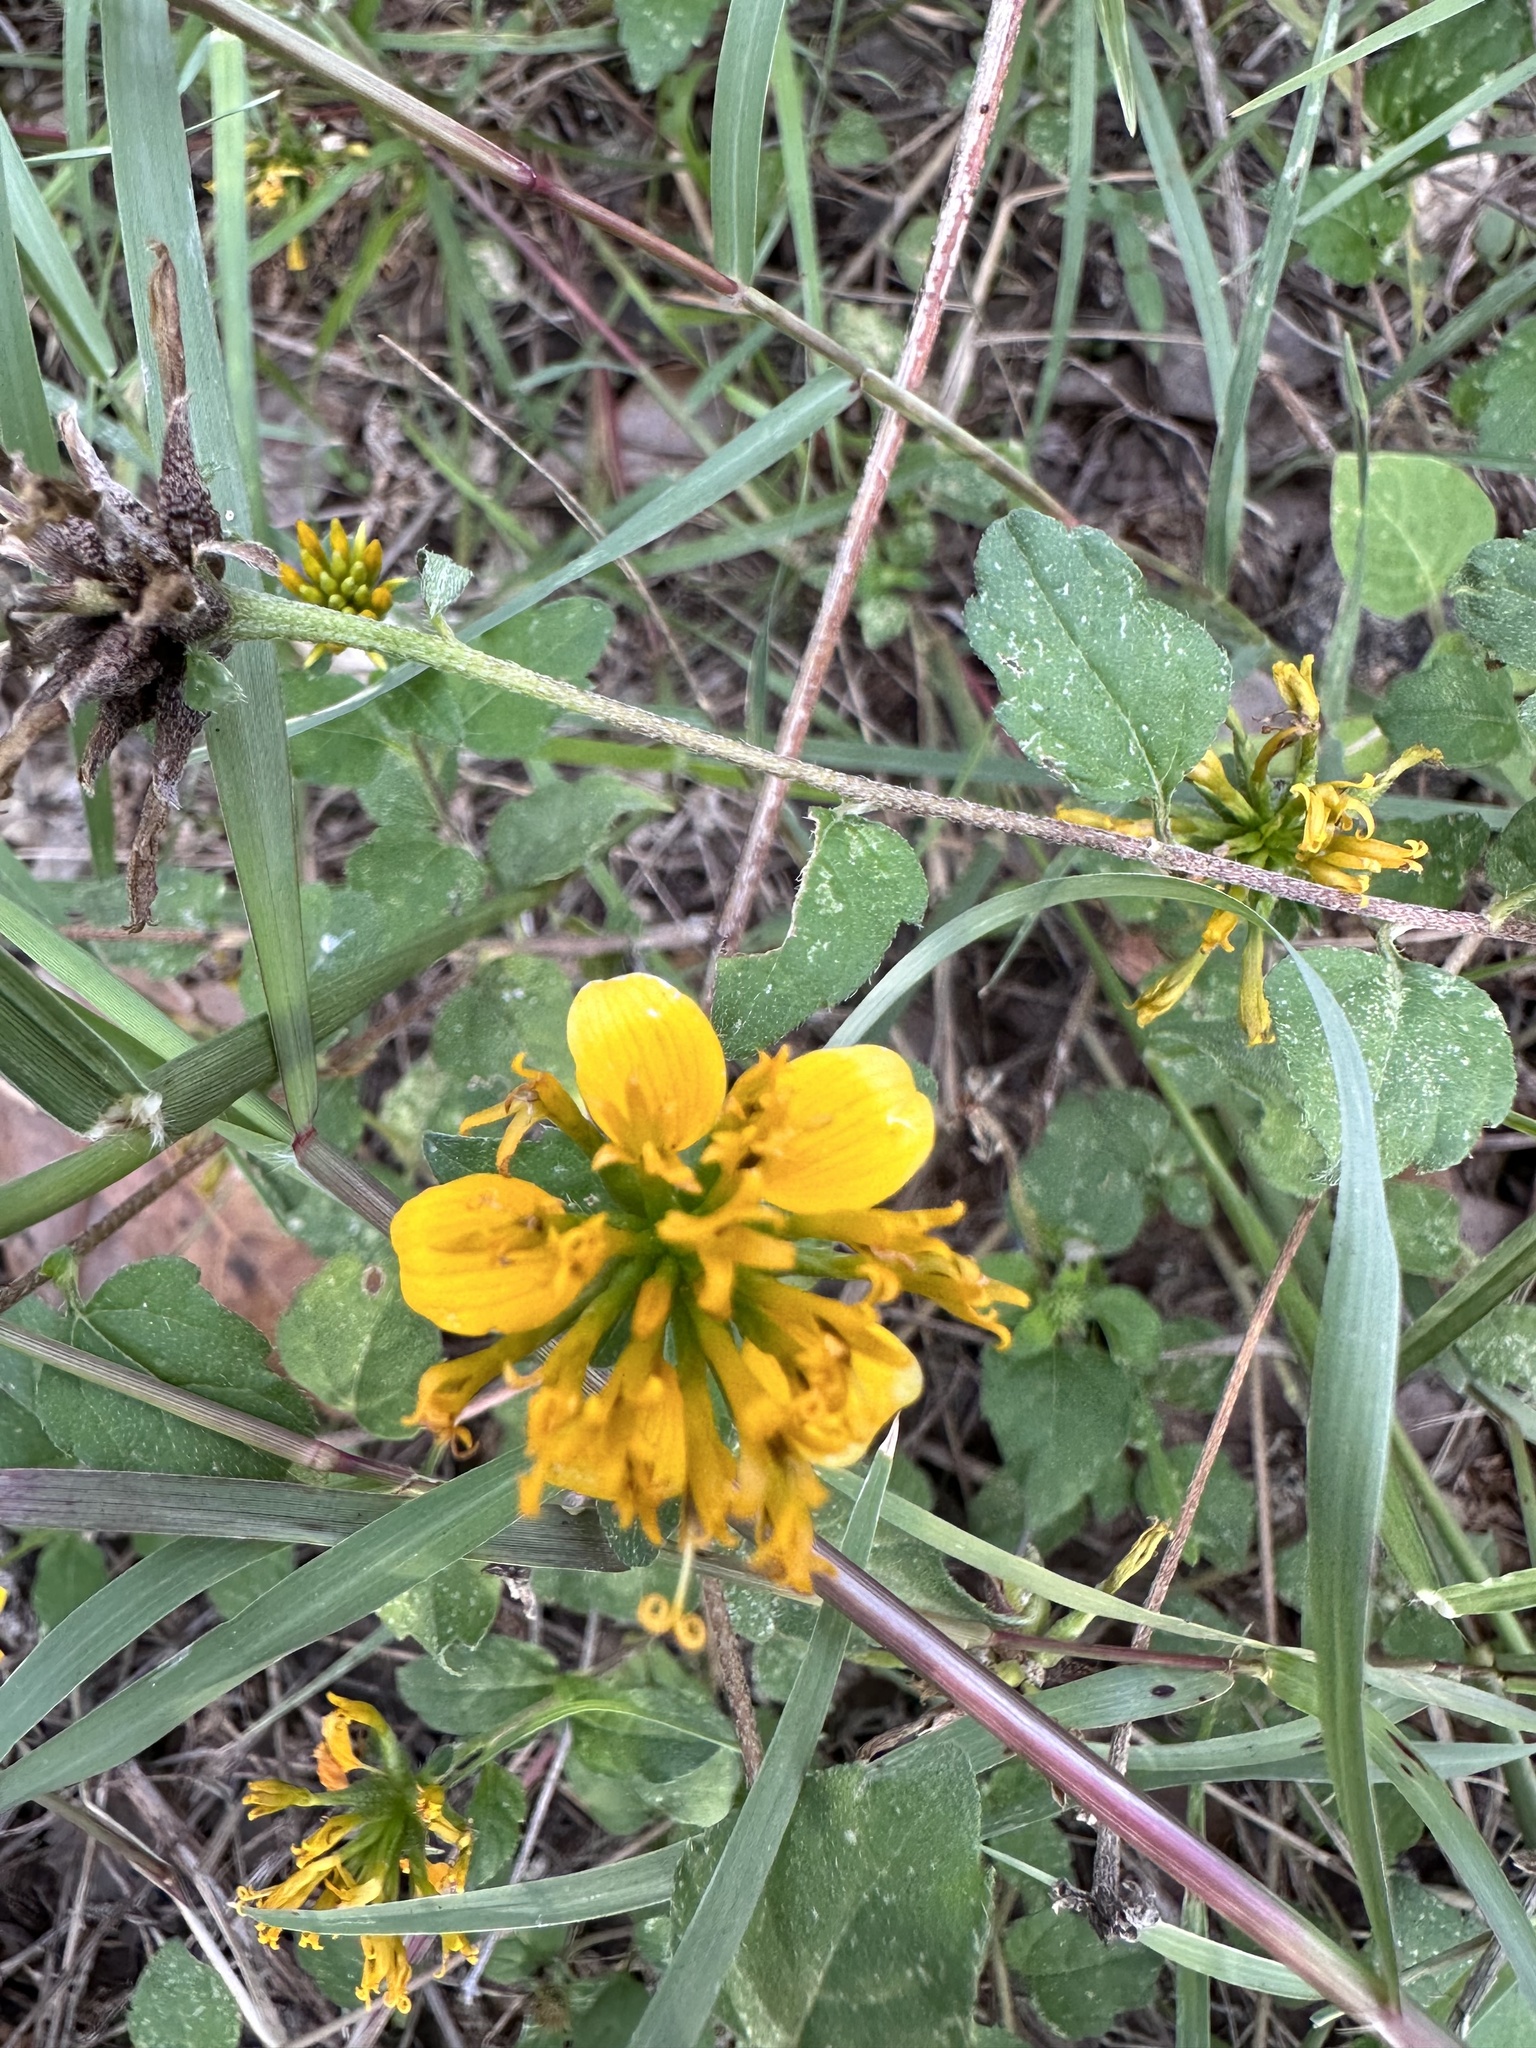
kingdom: Plantae
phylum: Tracheophyta
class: Magnoliopsida
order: Asterales
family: Asteraceae
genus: Sclerocarpus
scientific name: Sclerocarpus uniserialis
